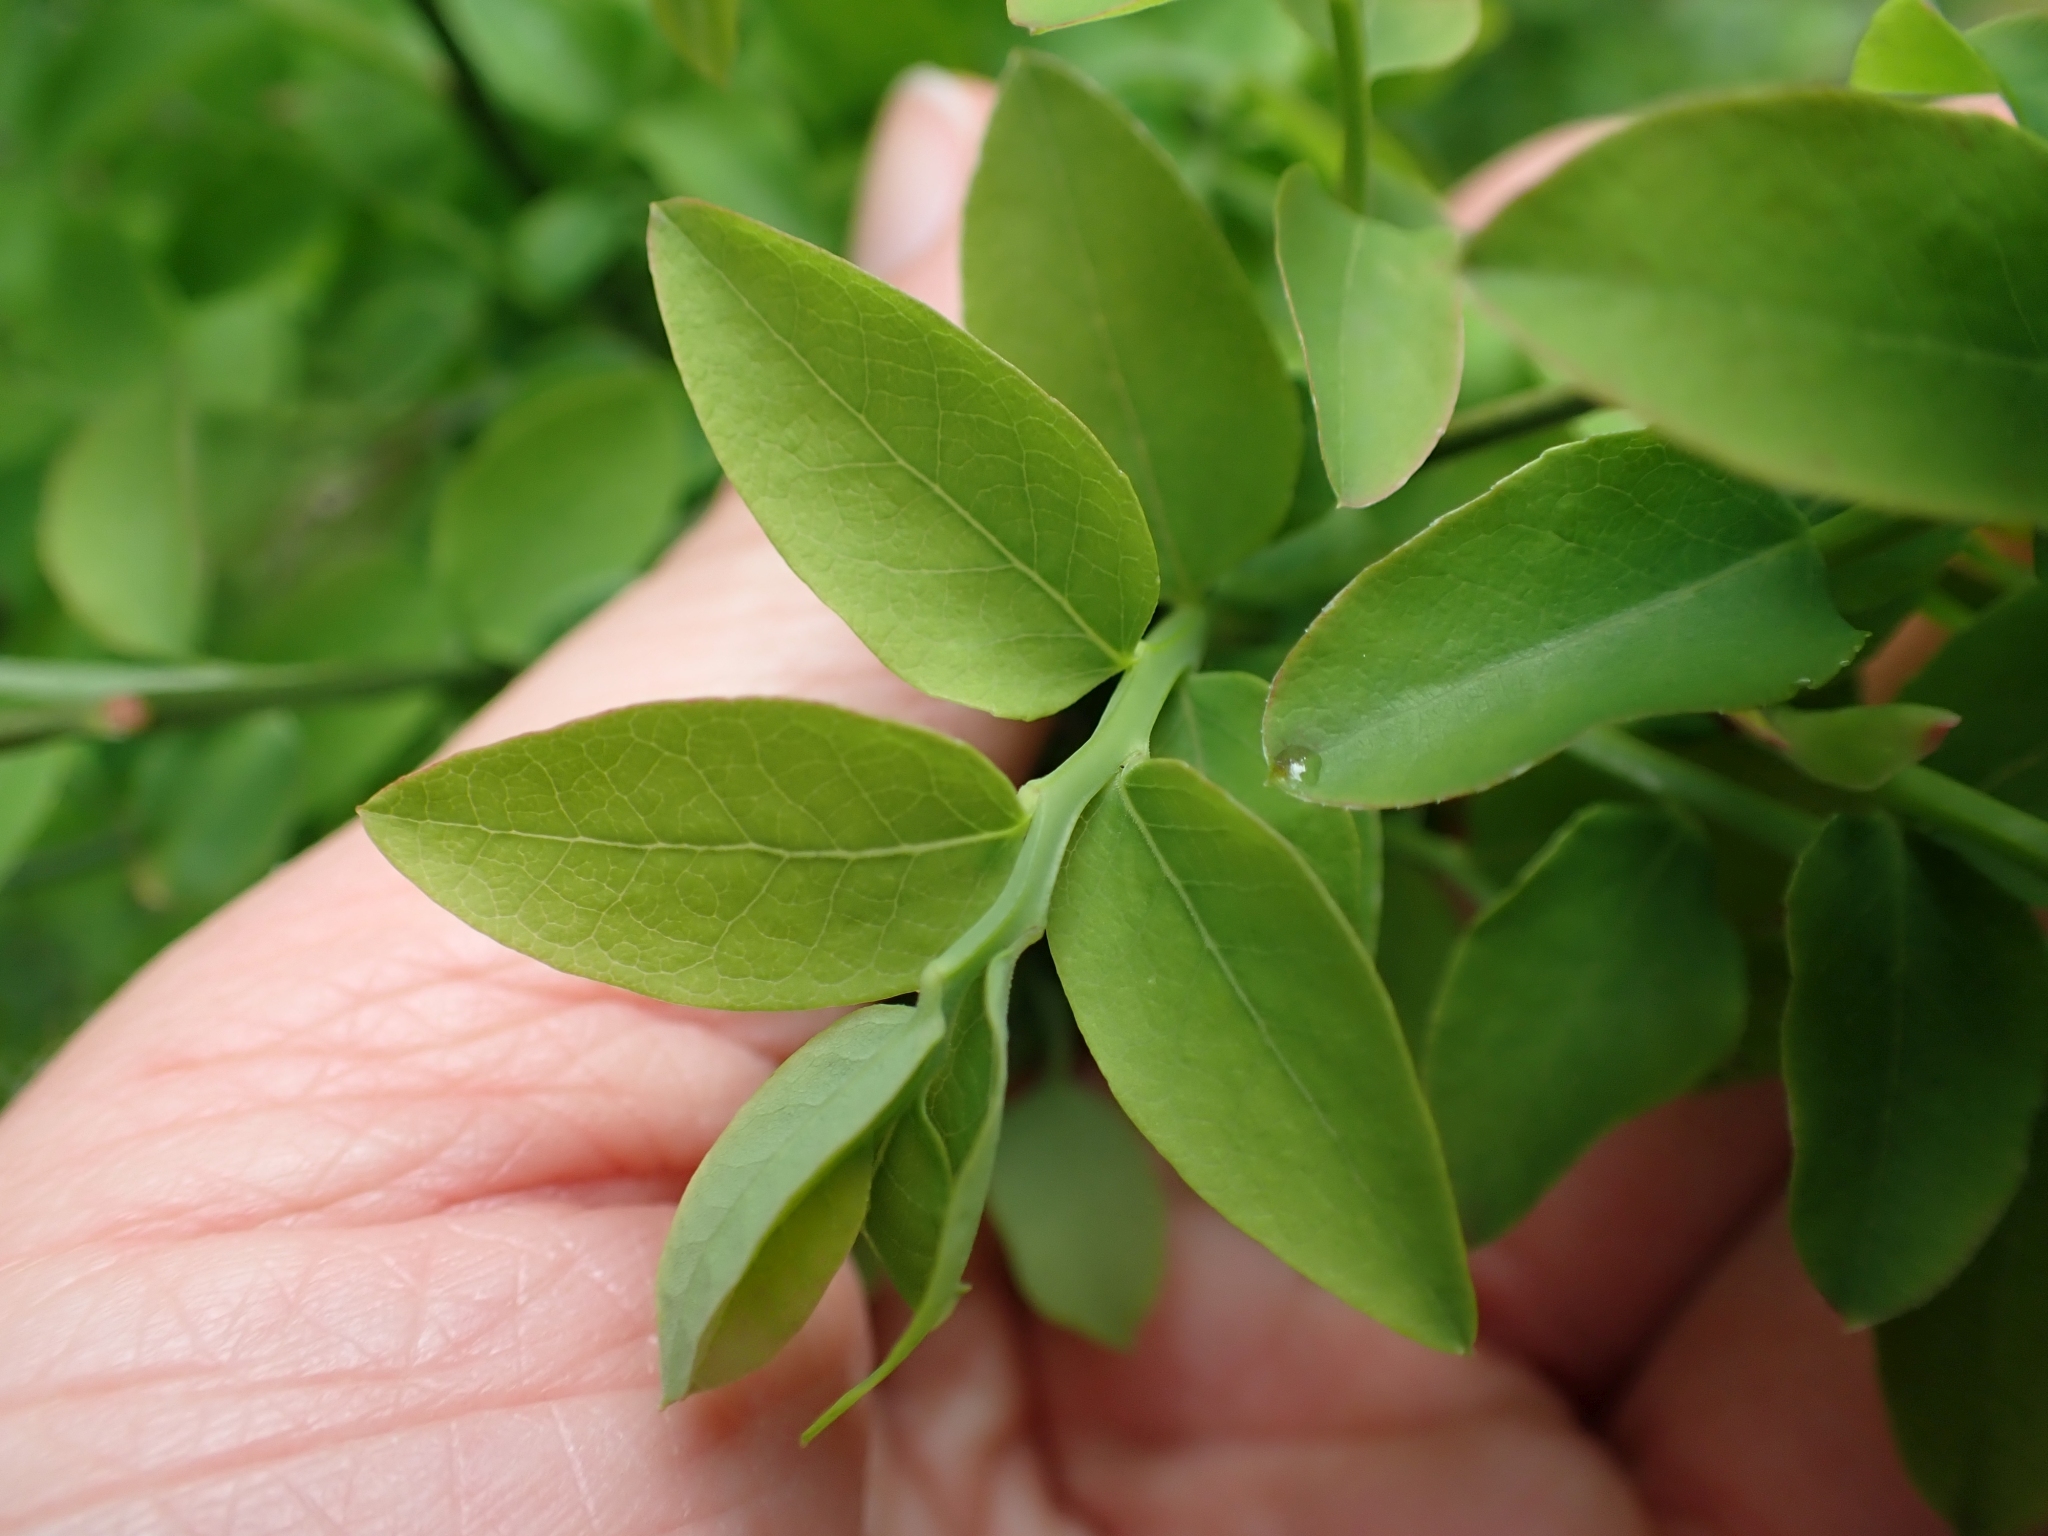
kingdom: Plantae
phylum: Tracheophyta
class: Magnoliopsida
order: Ericales
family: Ericaceae
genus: Vaccinium
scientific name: Vaccinium parvifolium
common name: Red-huckleberry
